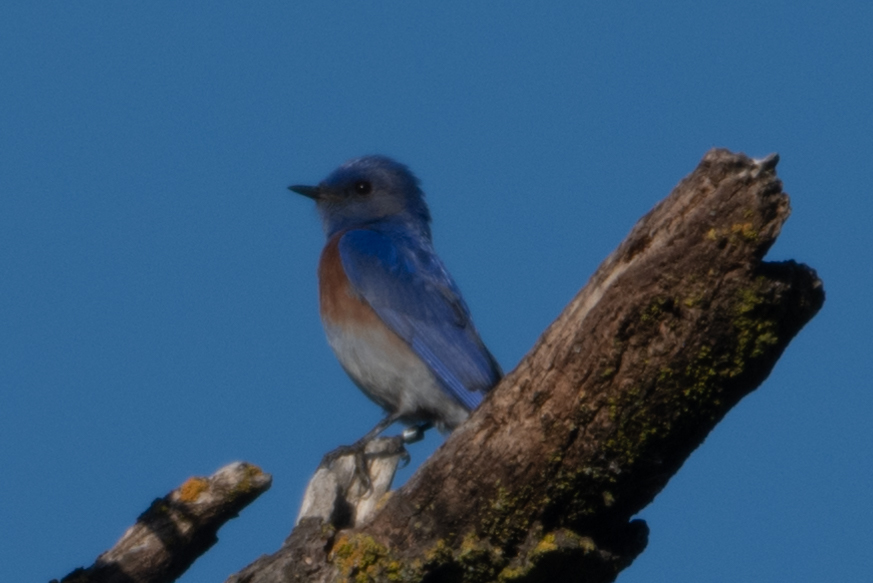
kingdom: Animalia
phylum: Chordata
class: Aves
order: Passeriformes
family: Turdidae
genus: Sialia
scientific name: Sialia mexicana
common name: Western bluebird
